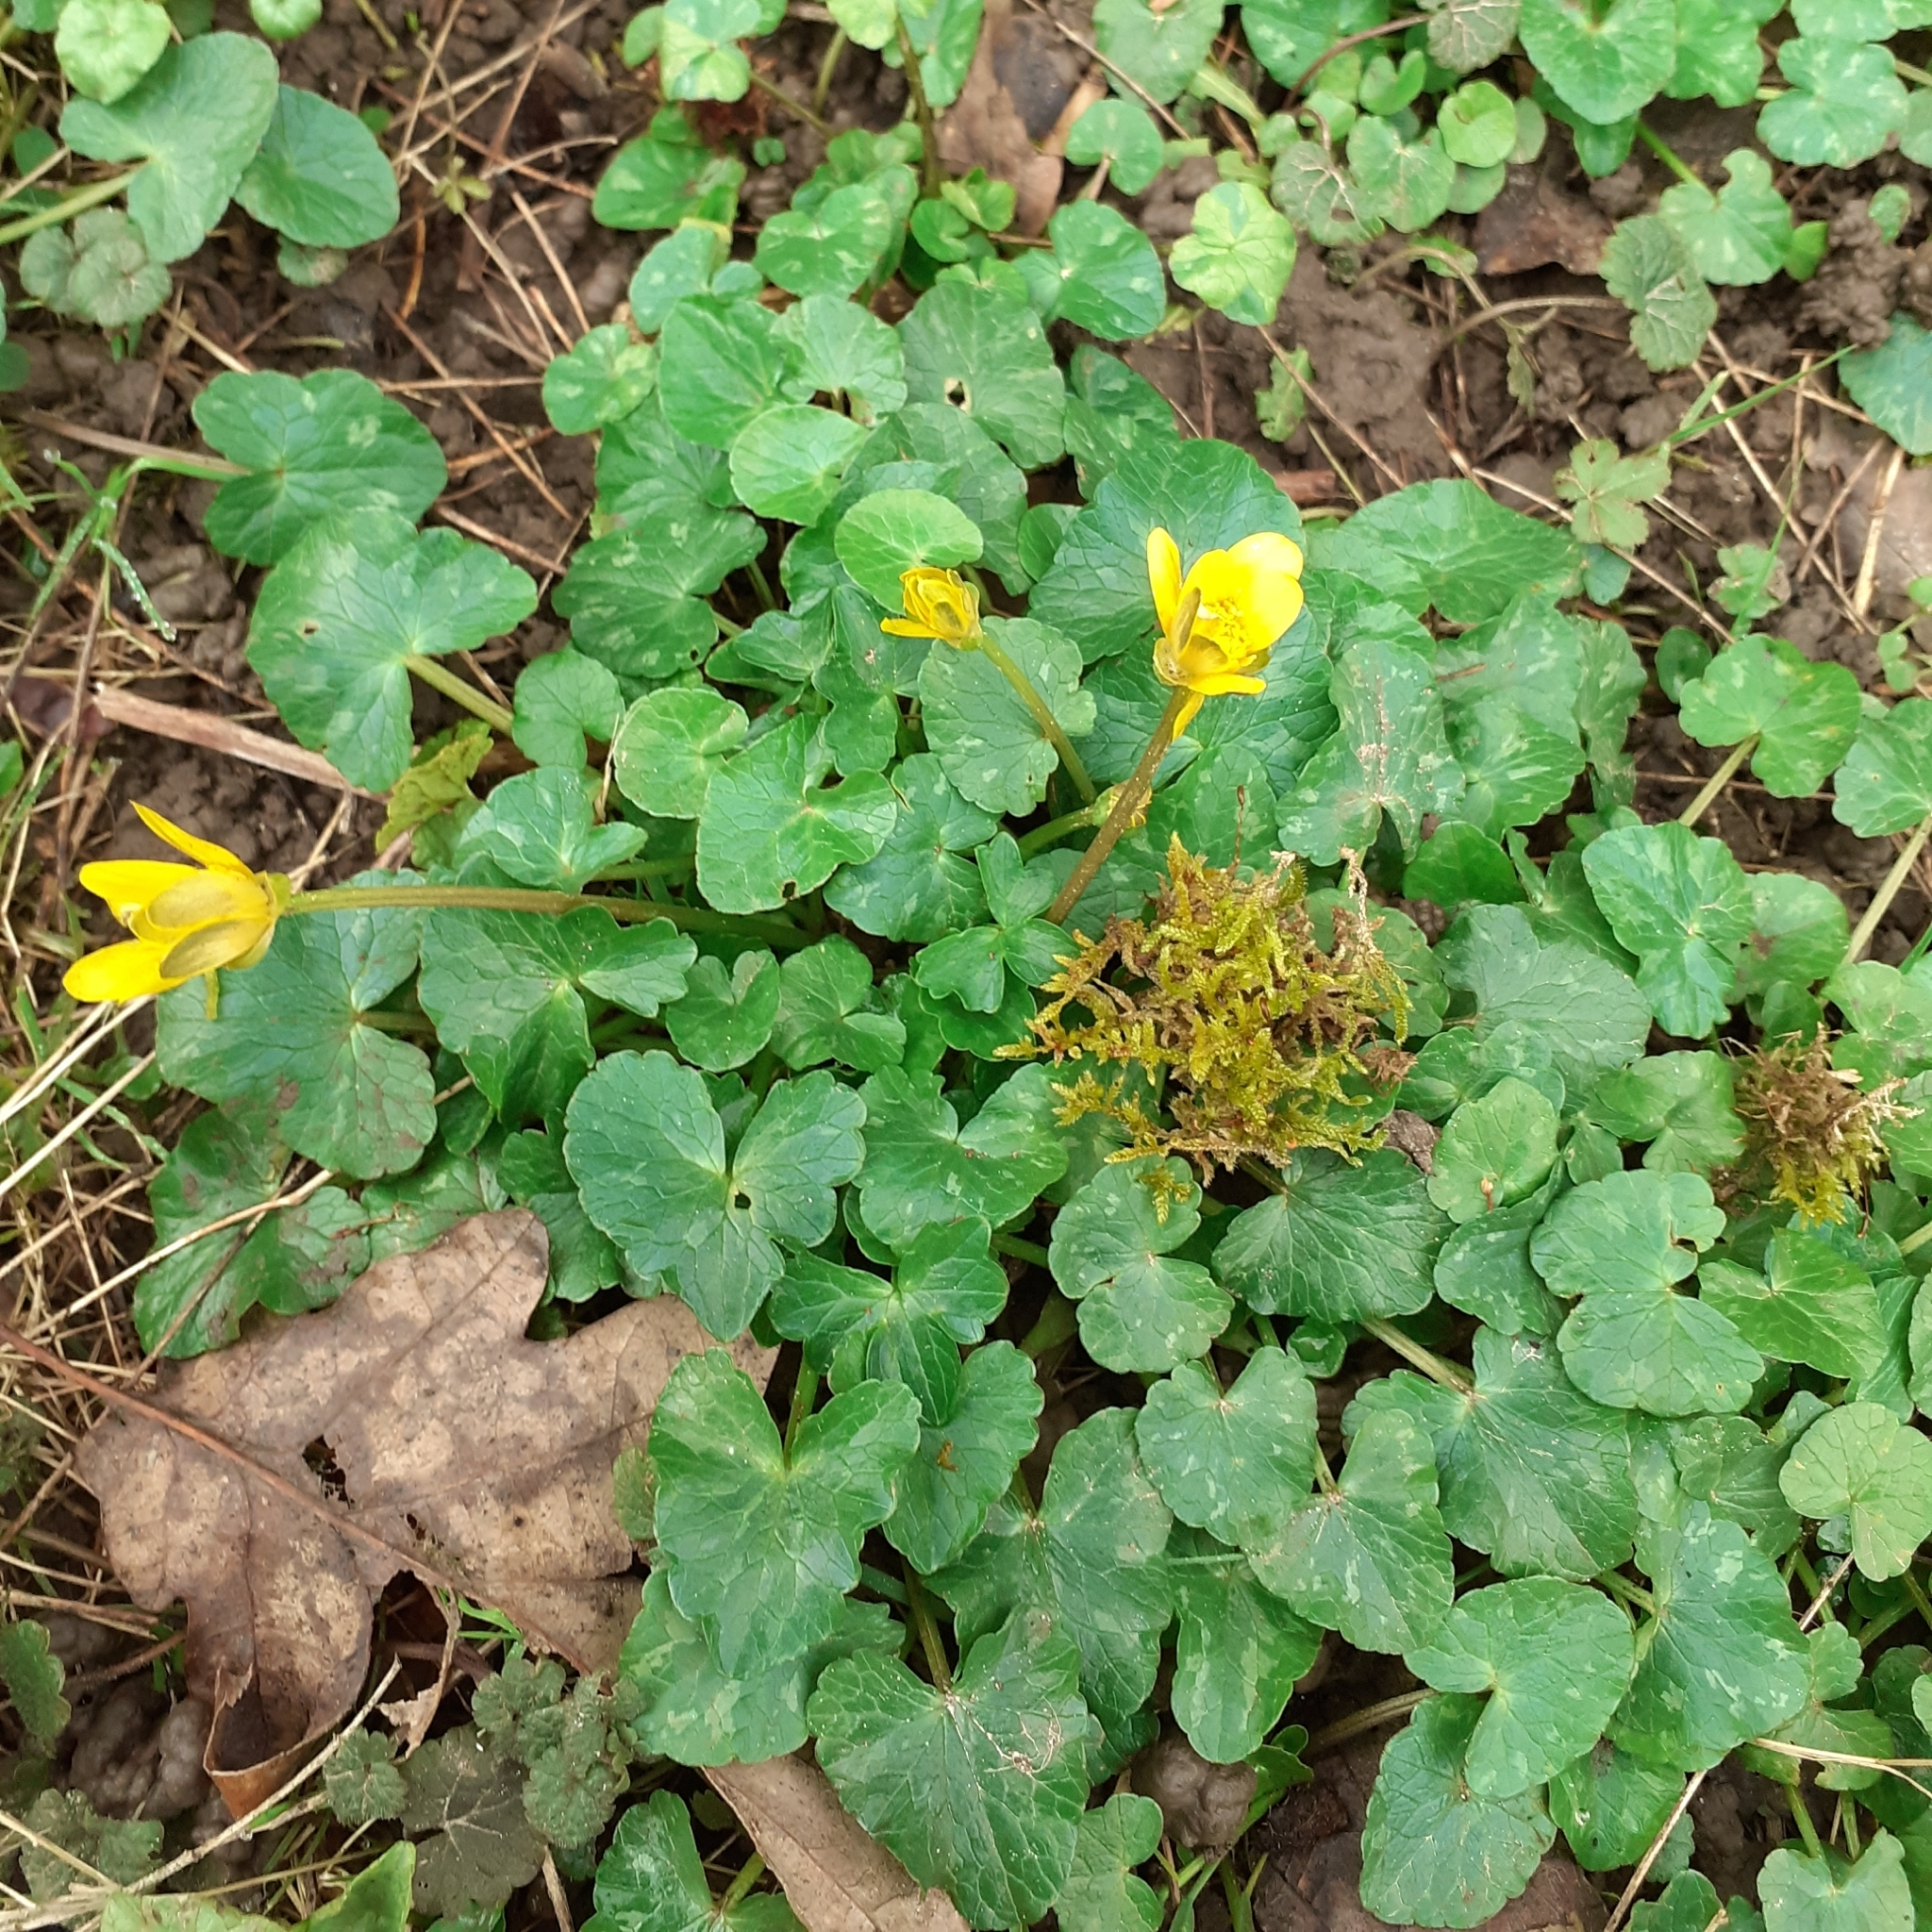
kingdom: Plantae
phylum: Tracheophyta
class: Magnoliopsida
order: Ranunculales
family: Ranunculaceae
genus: Ficaria
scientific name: Ficaria verna
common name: Lesser celandine
